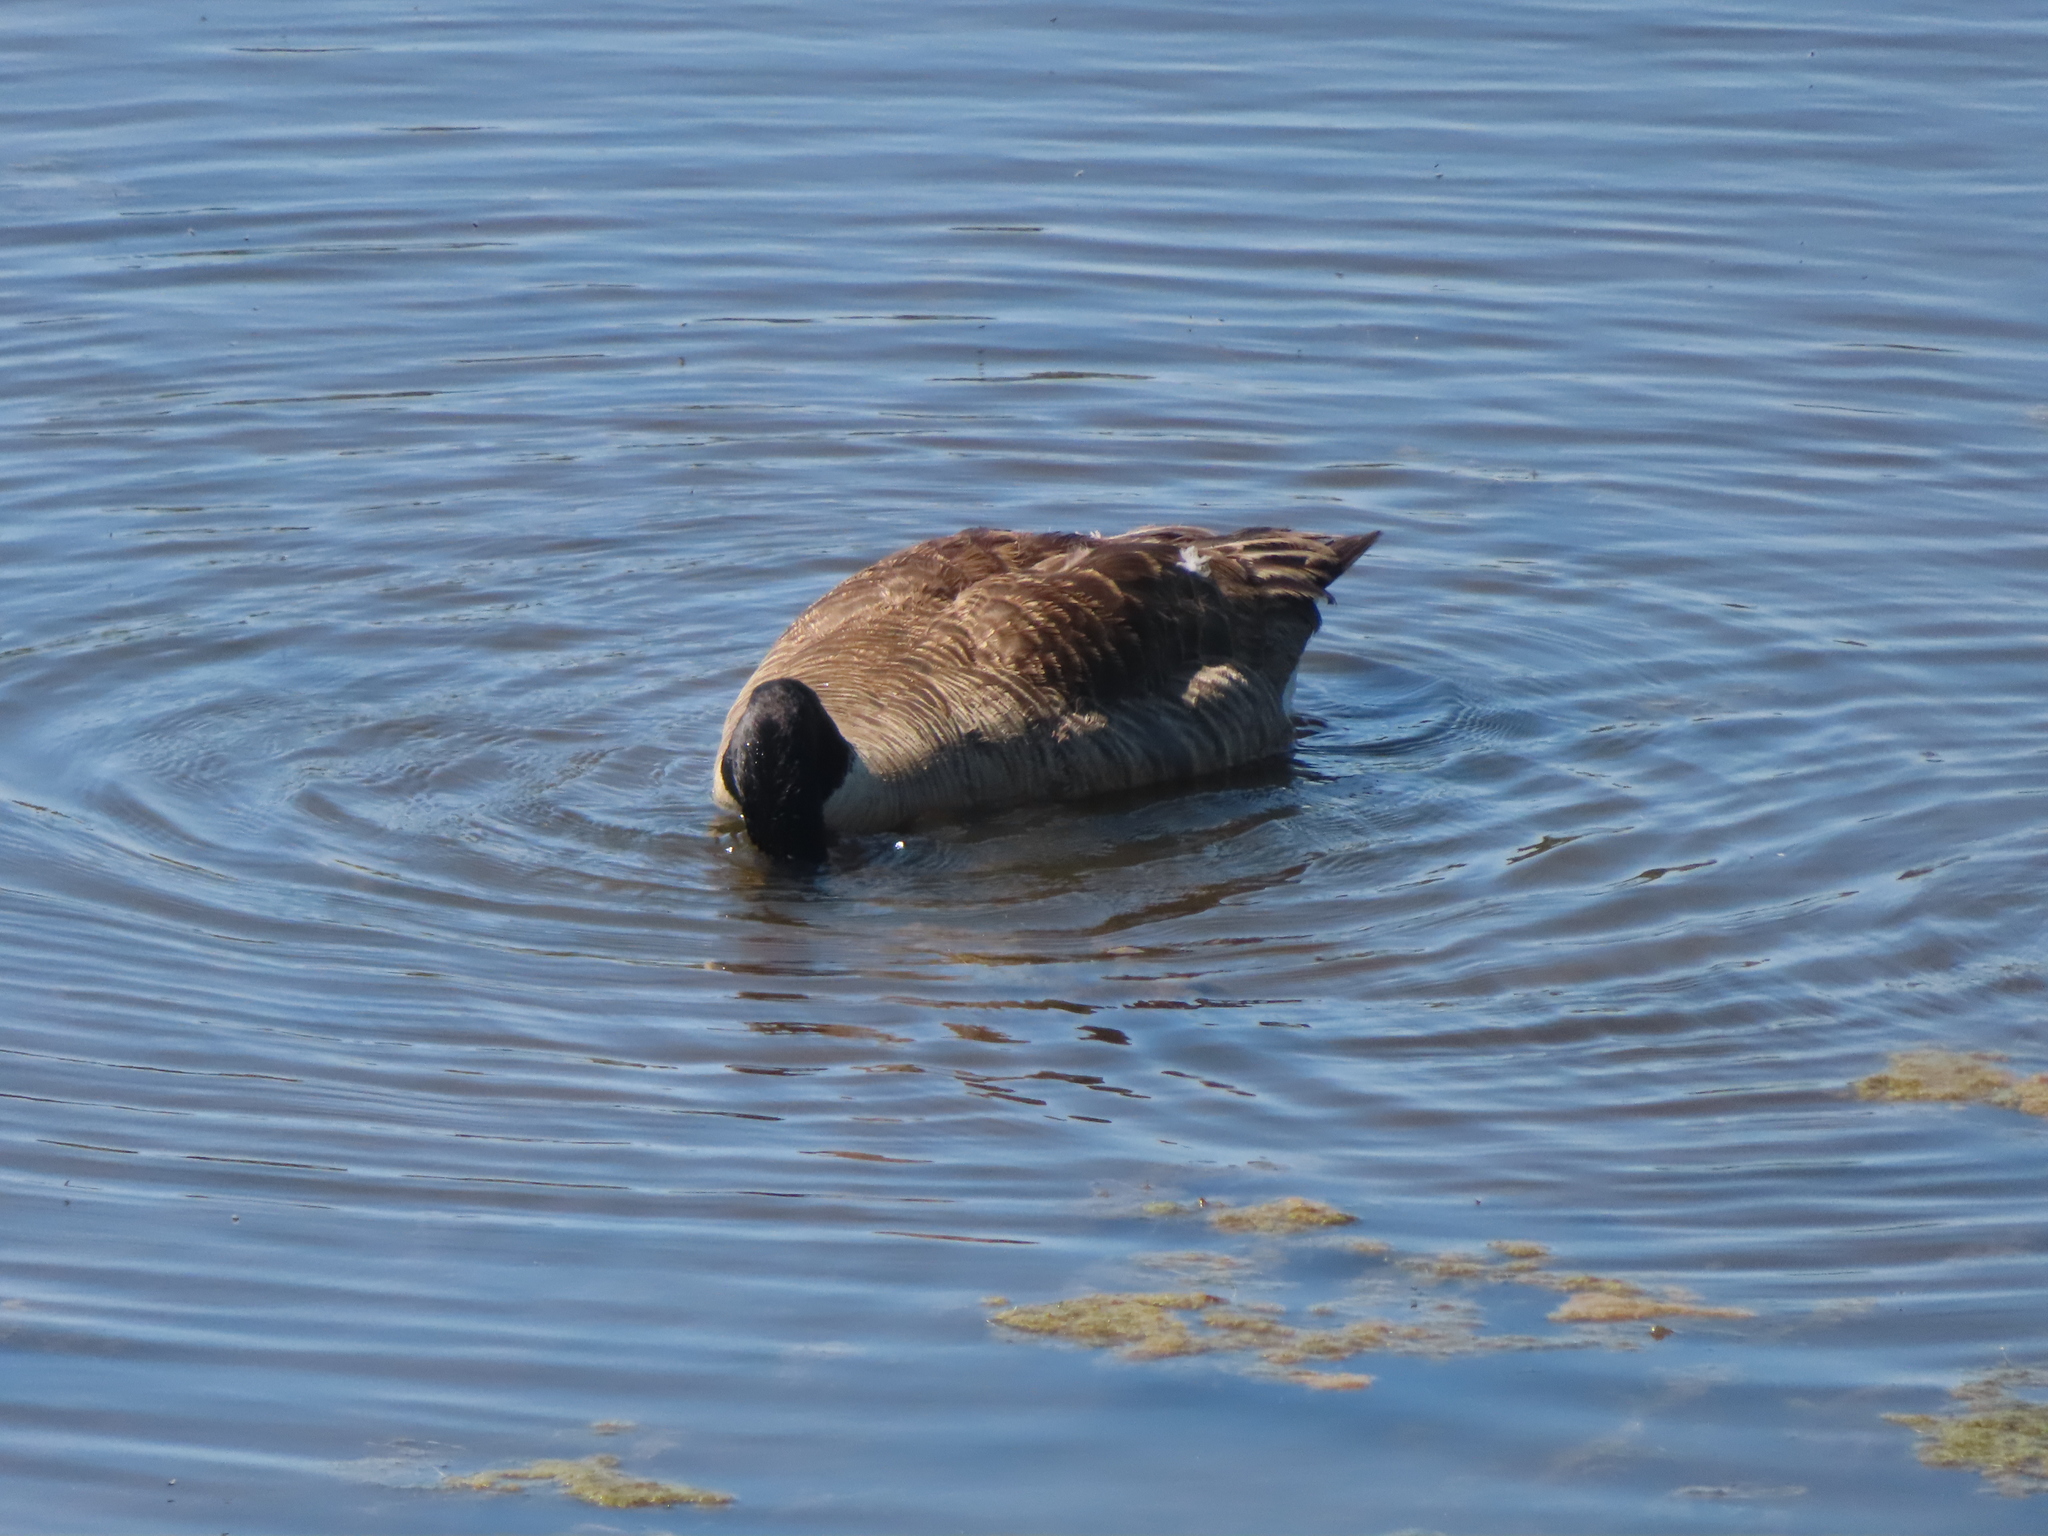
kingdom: Animalia
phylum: Chordata
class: Aves
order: Anseriformes
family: Anatidae
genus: Branta
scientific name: Branta canadensis
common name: Canada goose
